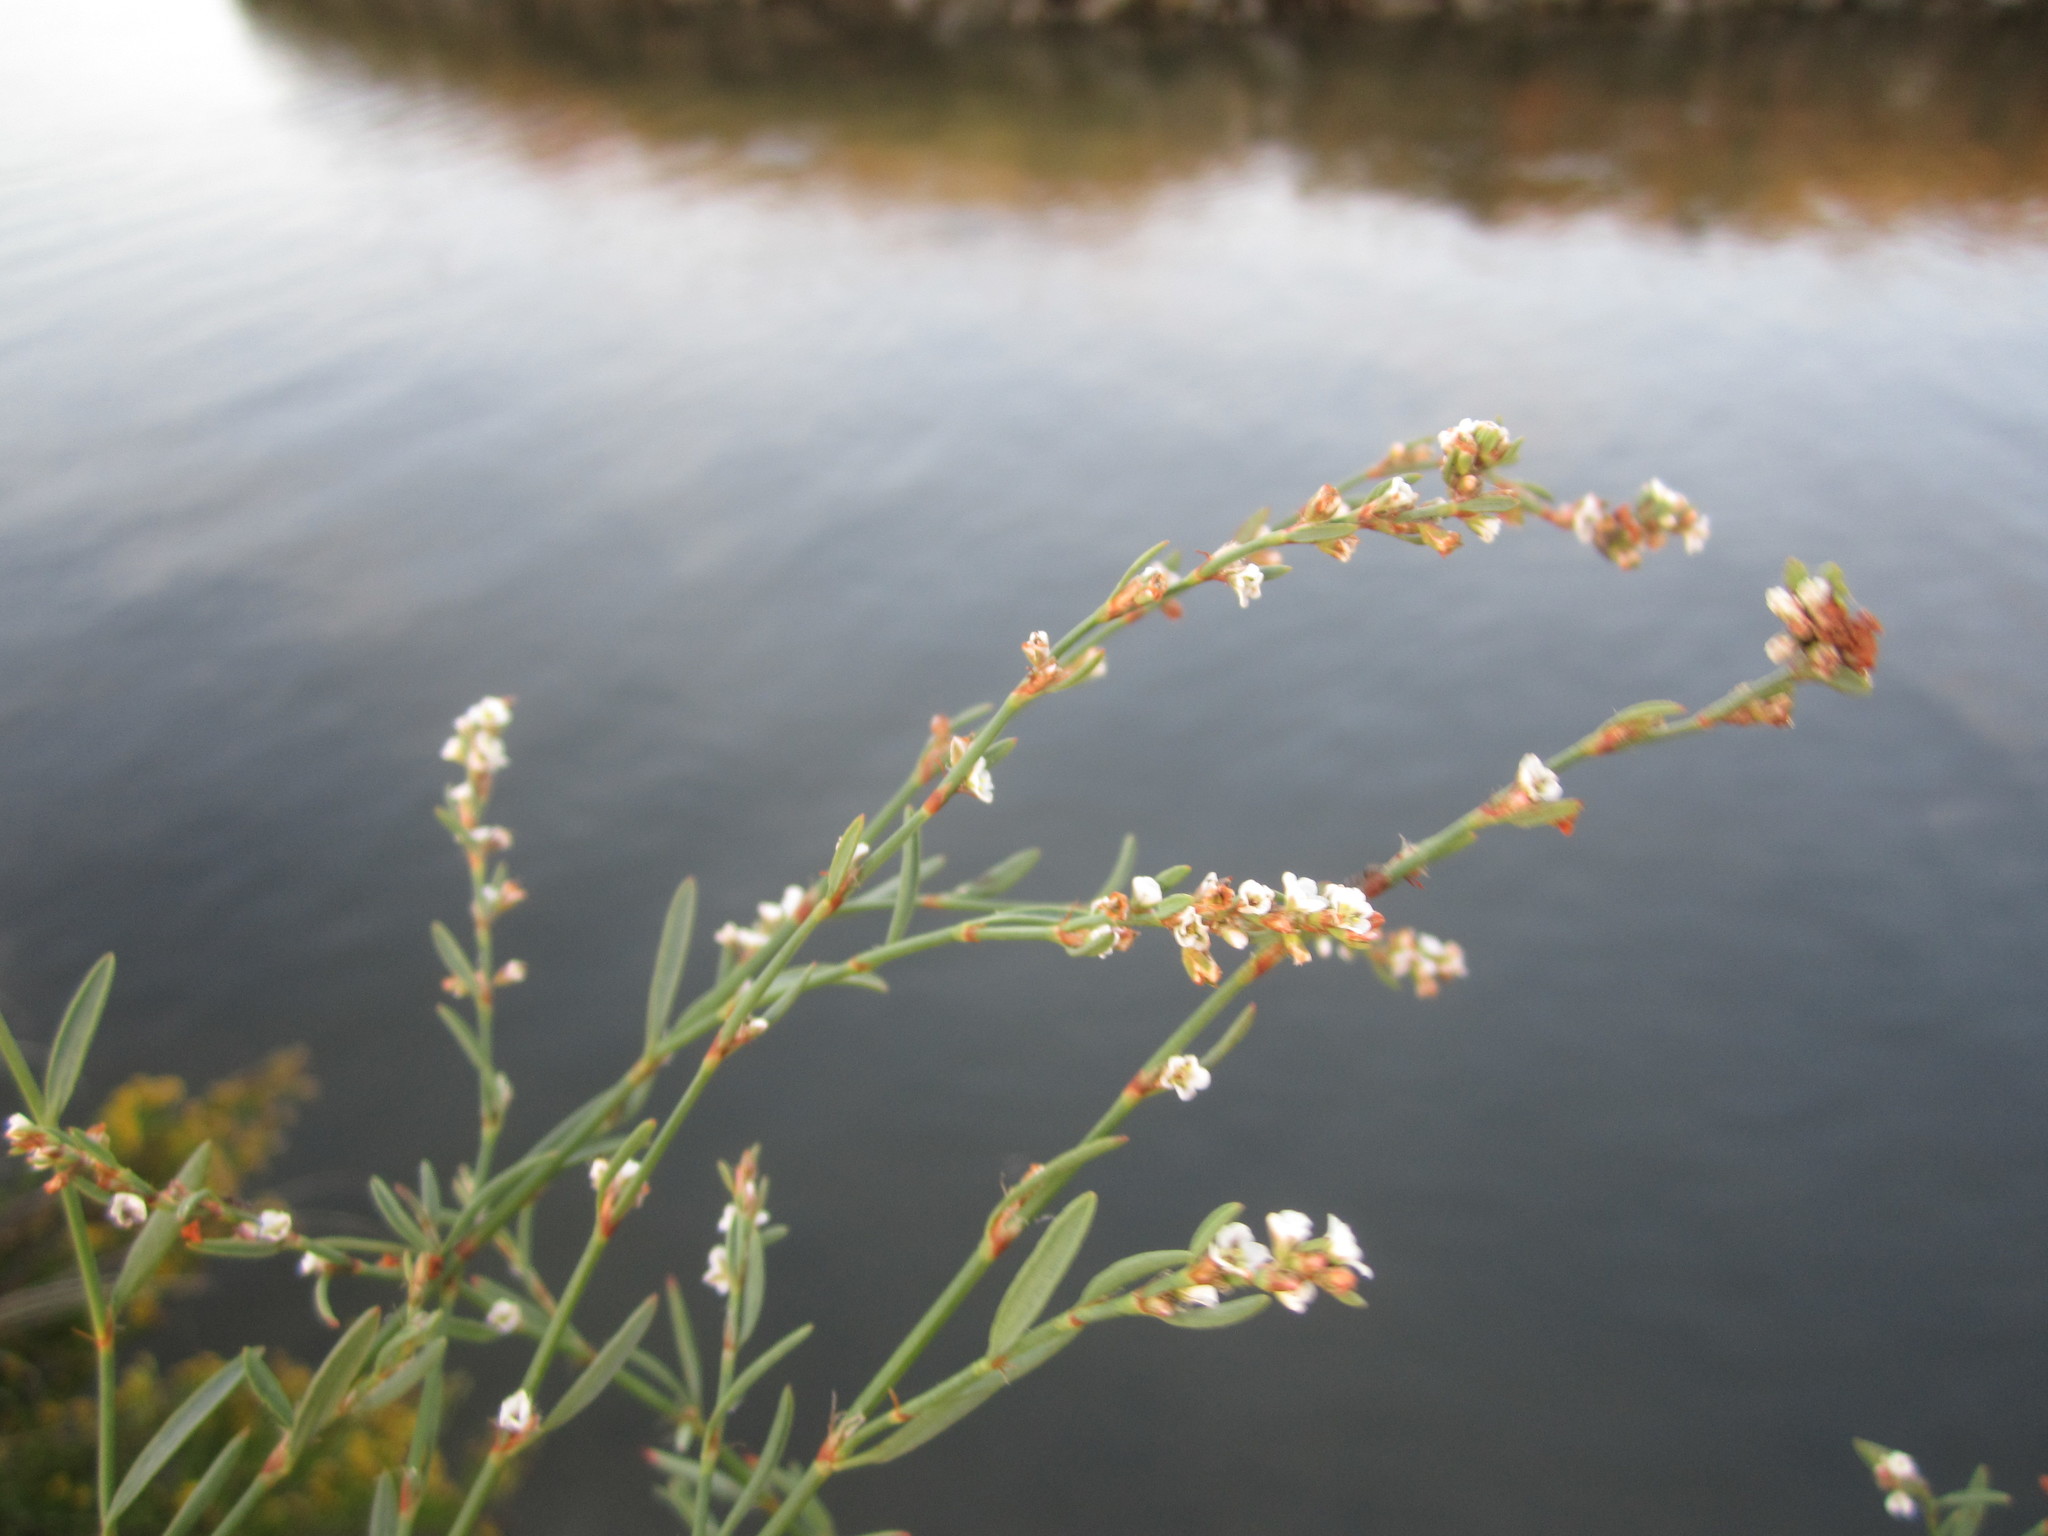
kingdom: Plantae
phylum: Tracheophyta
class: Magnoliopsida
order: Caryophyllales
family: Polygonaceae
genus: Polygonum
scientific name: Polygonum equisetiforme
